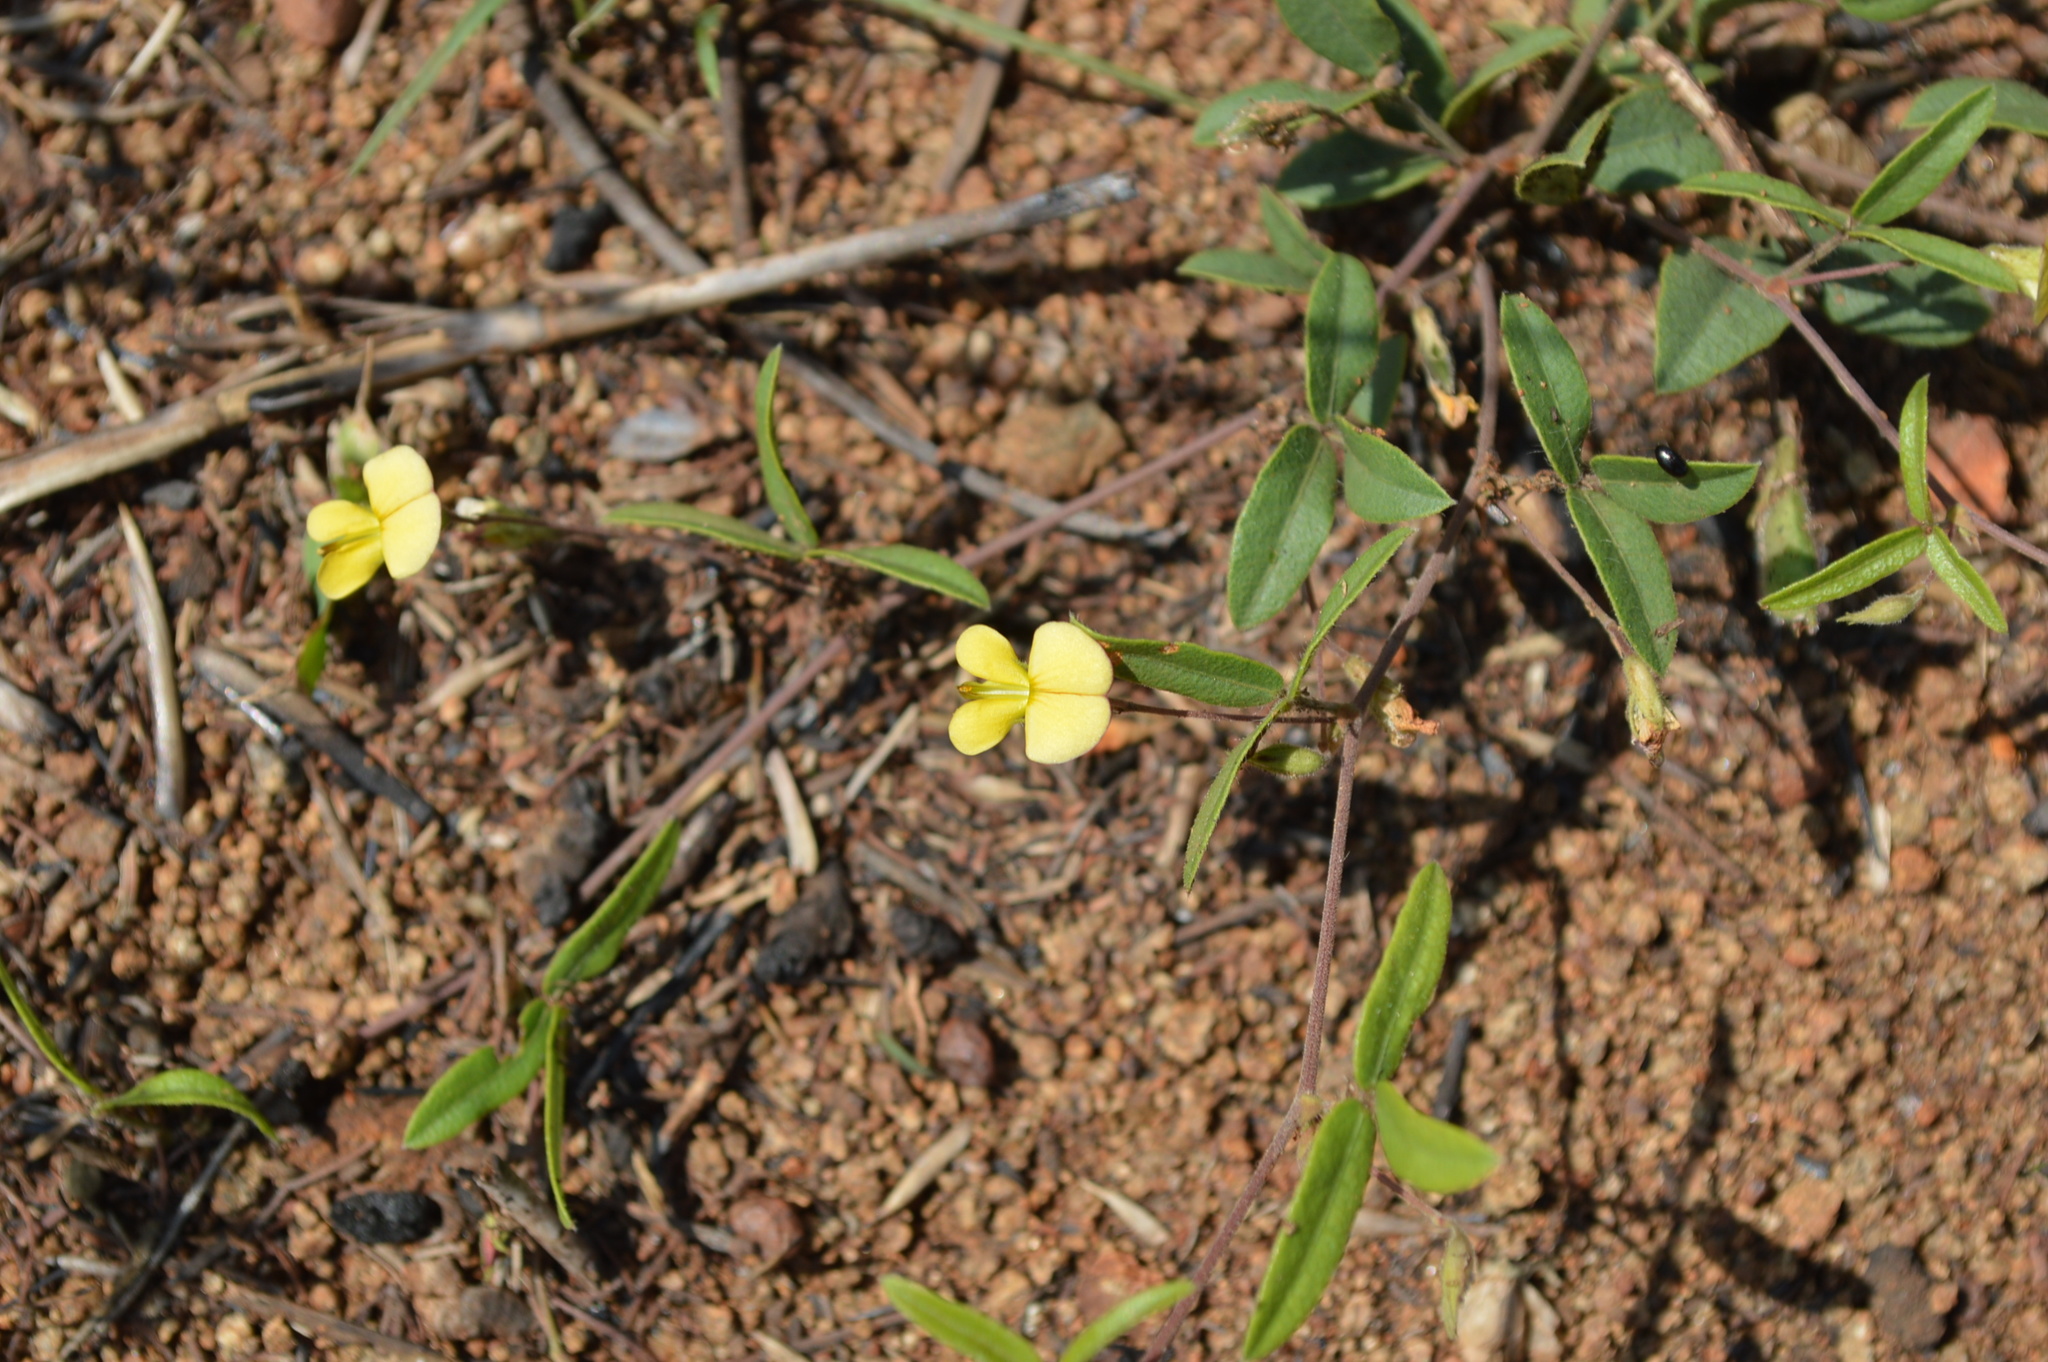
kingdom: Plantae
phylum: Tracheophyta
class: Magnoliopsida
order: Fabales
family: Fabaceae
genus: Rhynchosia
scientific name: Rhynchosia totta
